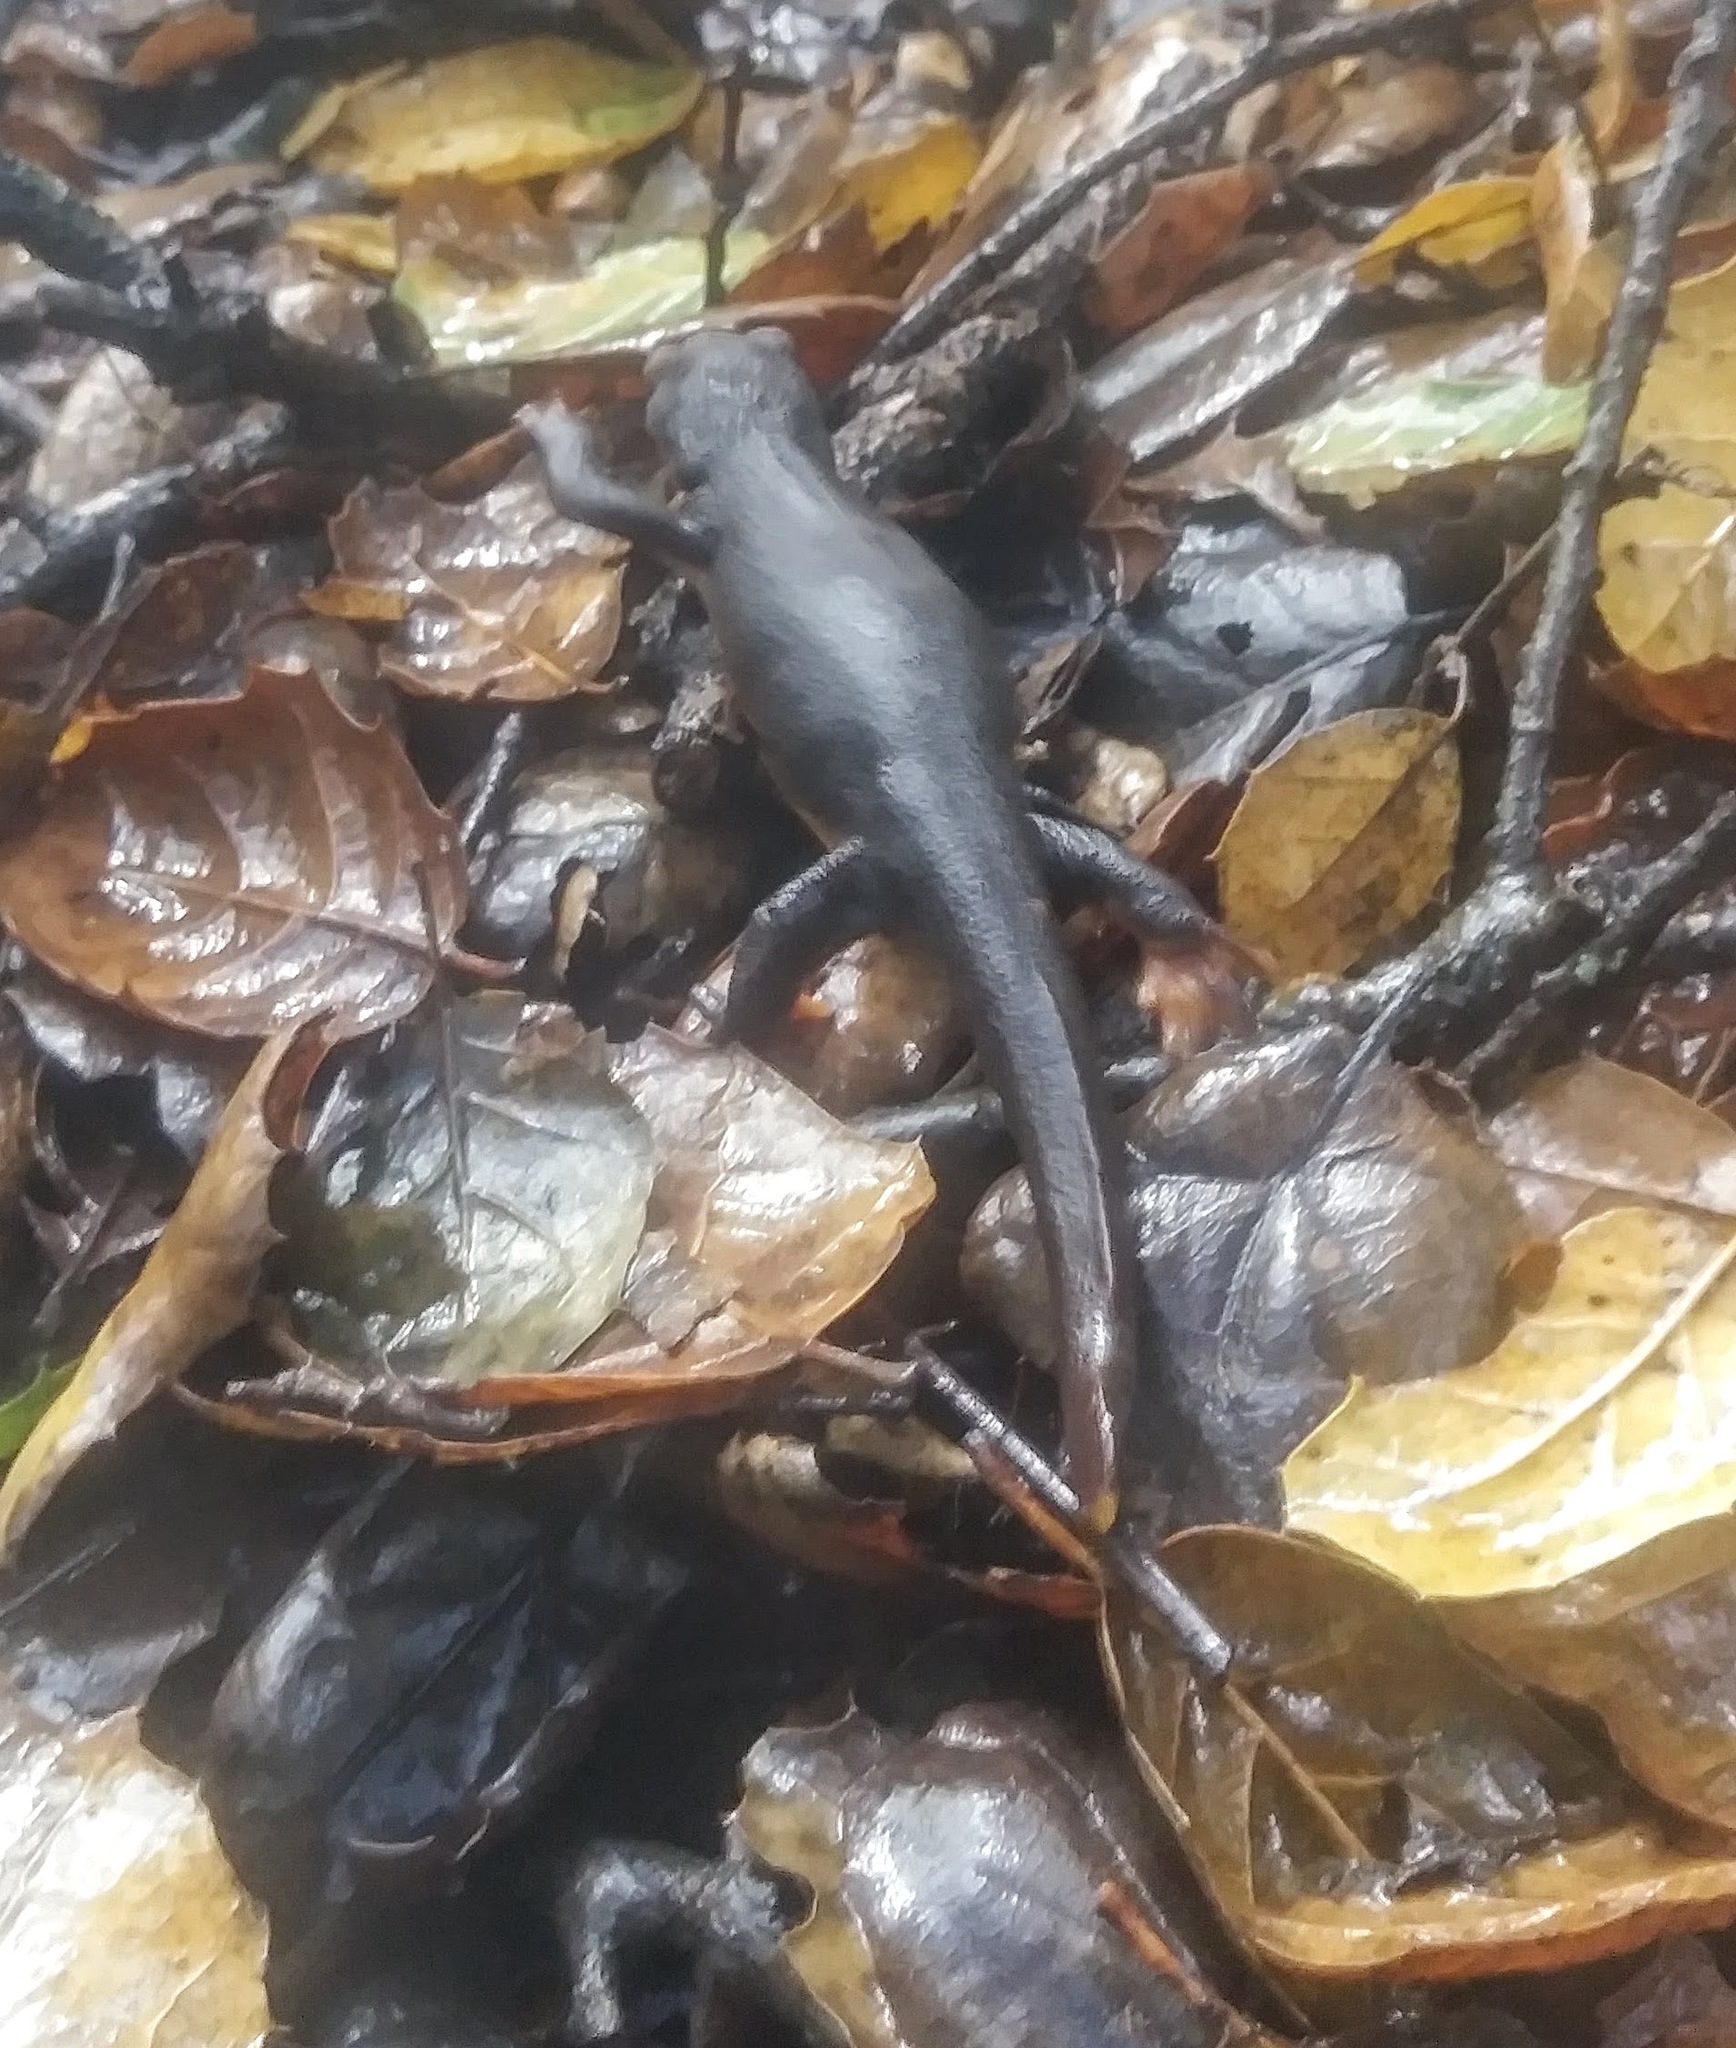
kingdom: Animalia
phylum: Chordata
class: Amphibia
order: Caudata
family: Salamandridae
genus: Taricha
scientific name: Taricha torosa
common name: California newt
